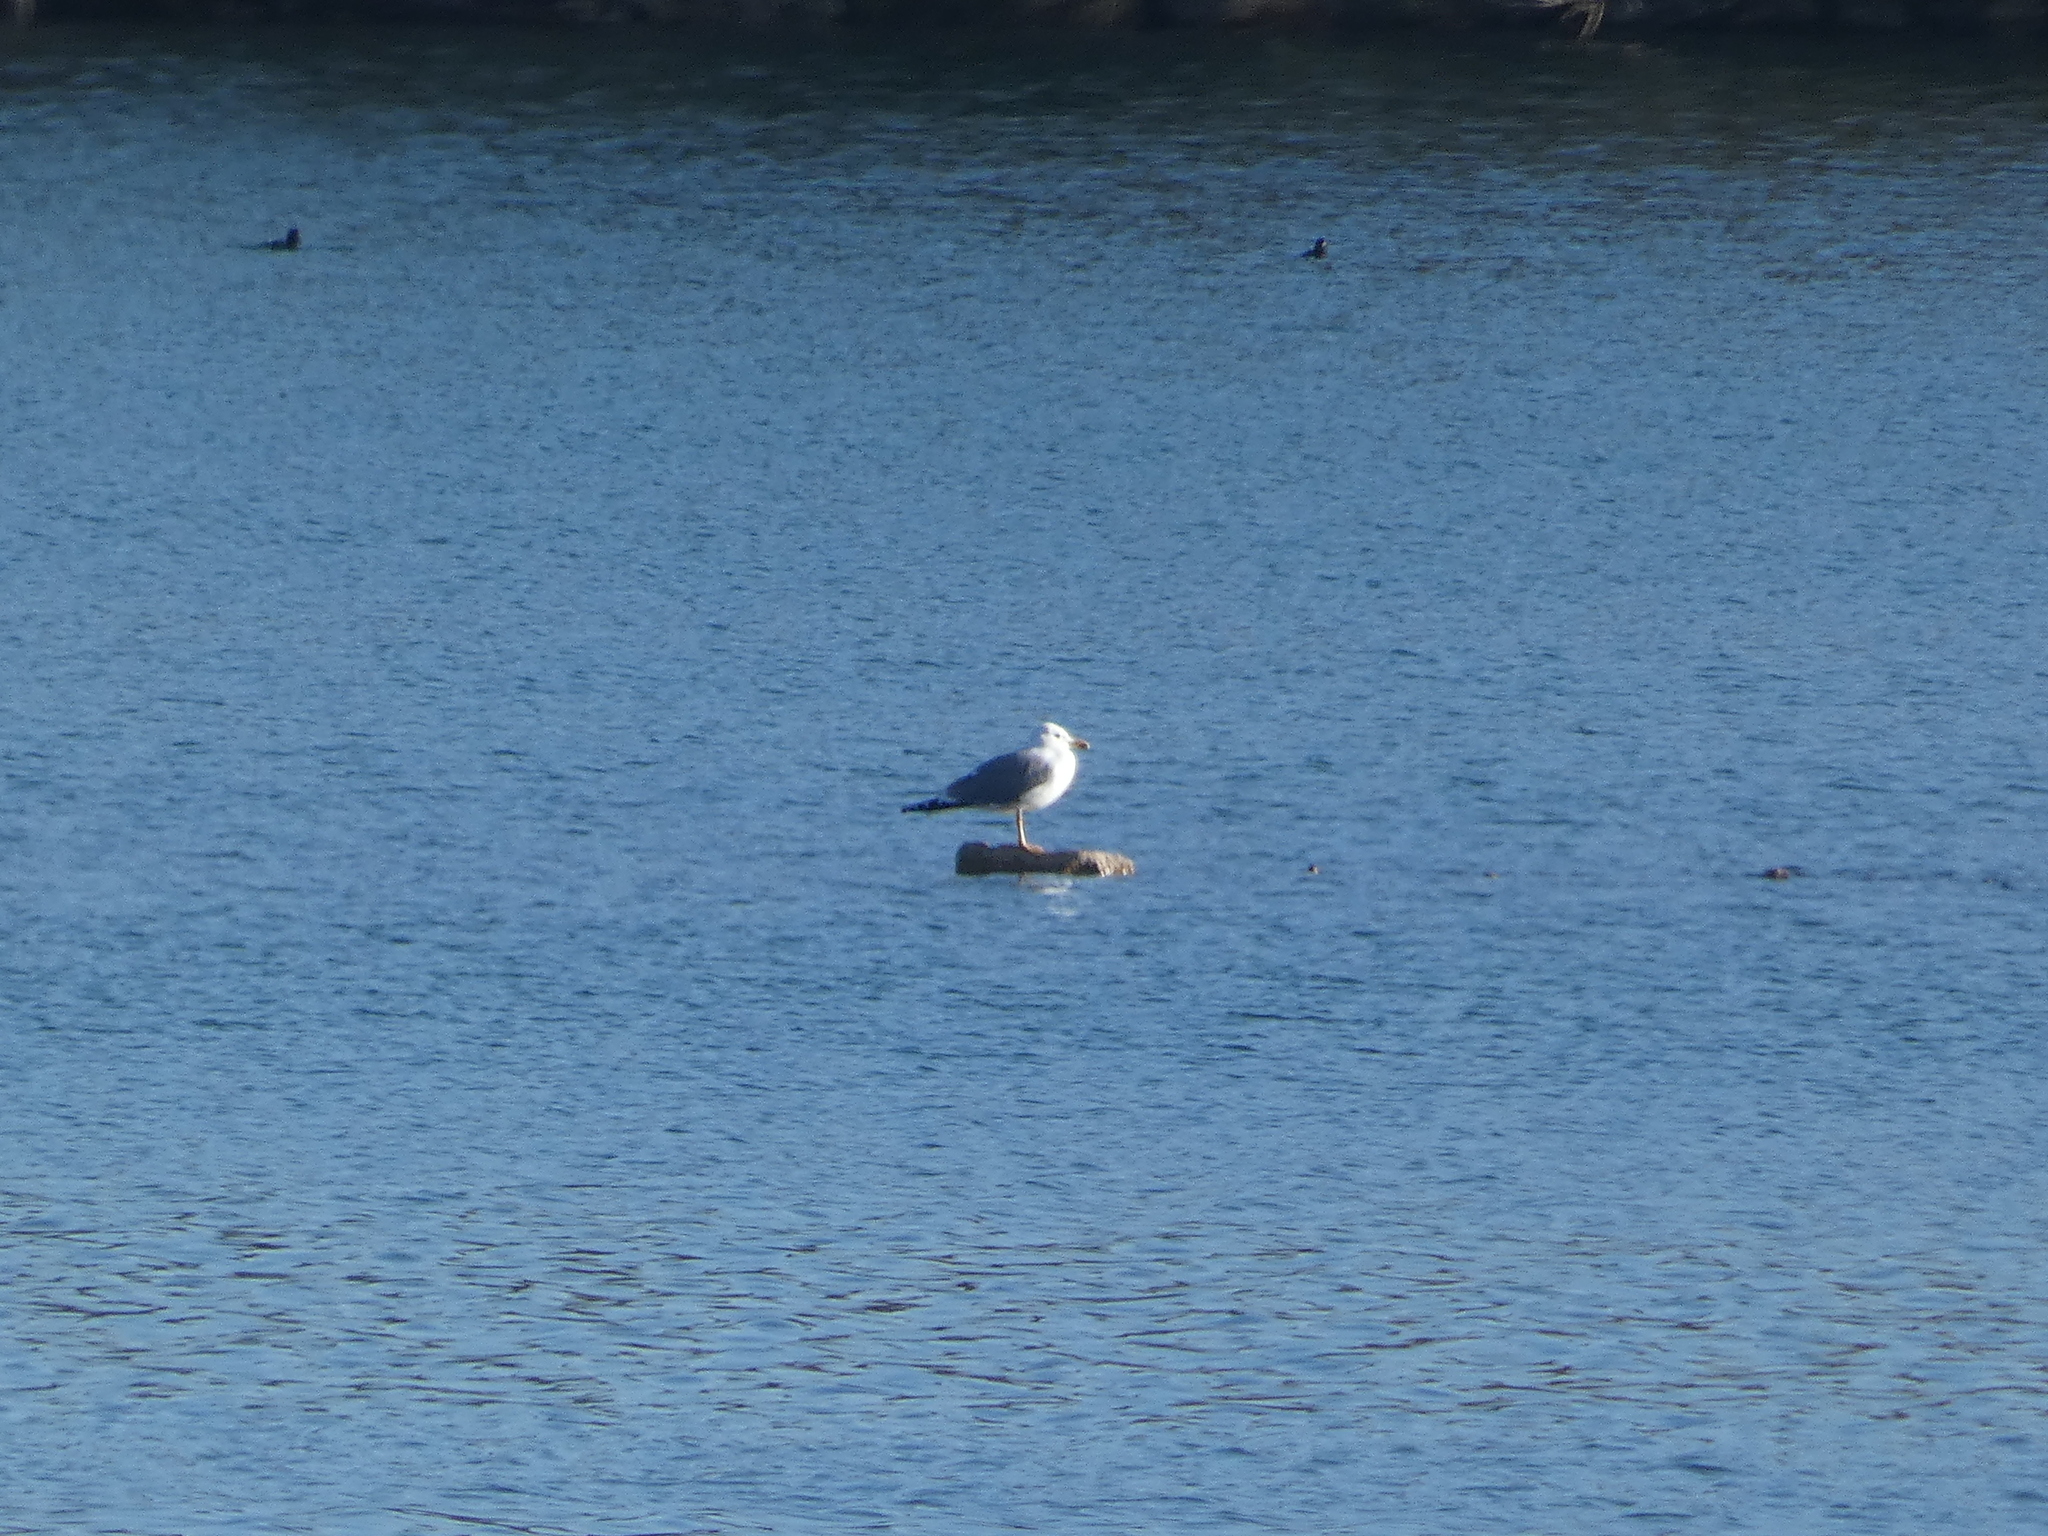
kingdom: Animalia
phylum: Chordata
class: Aves
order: Charadriiformes
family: Laridae
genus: Larus
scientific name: Larus michahellis
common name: Yellow-legged gull
